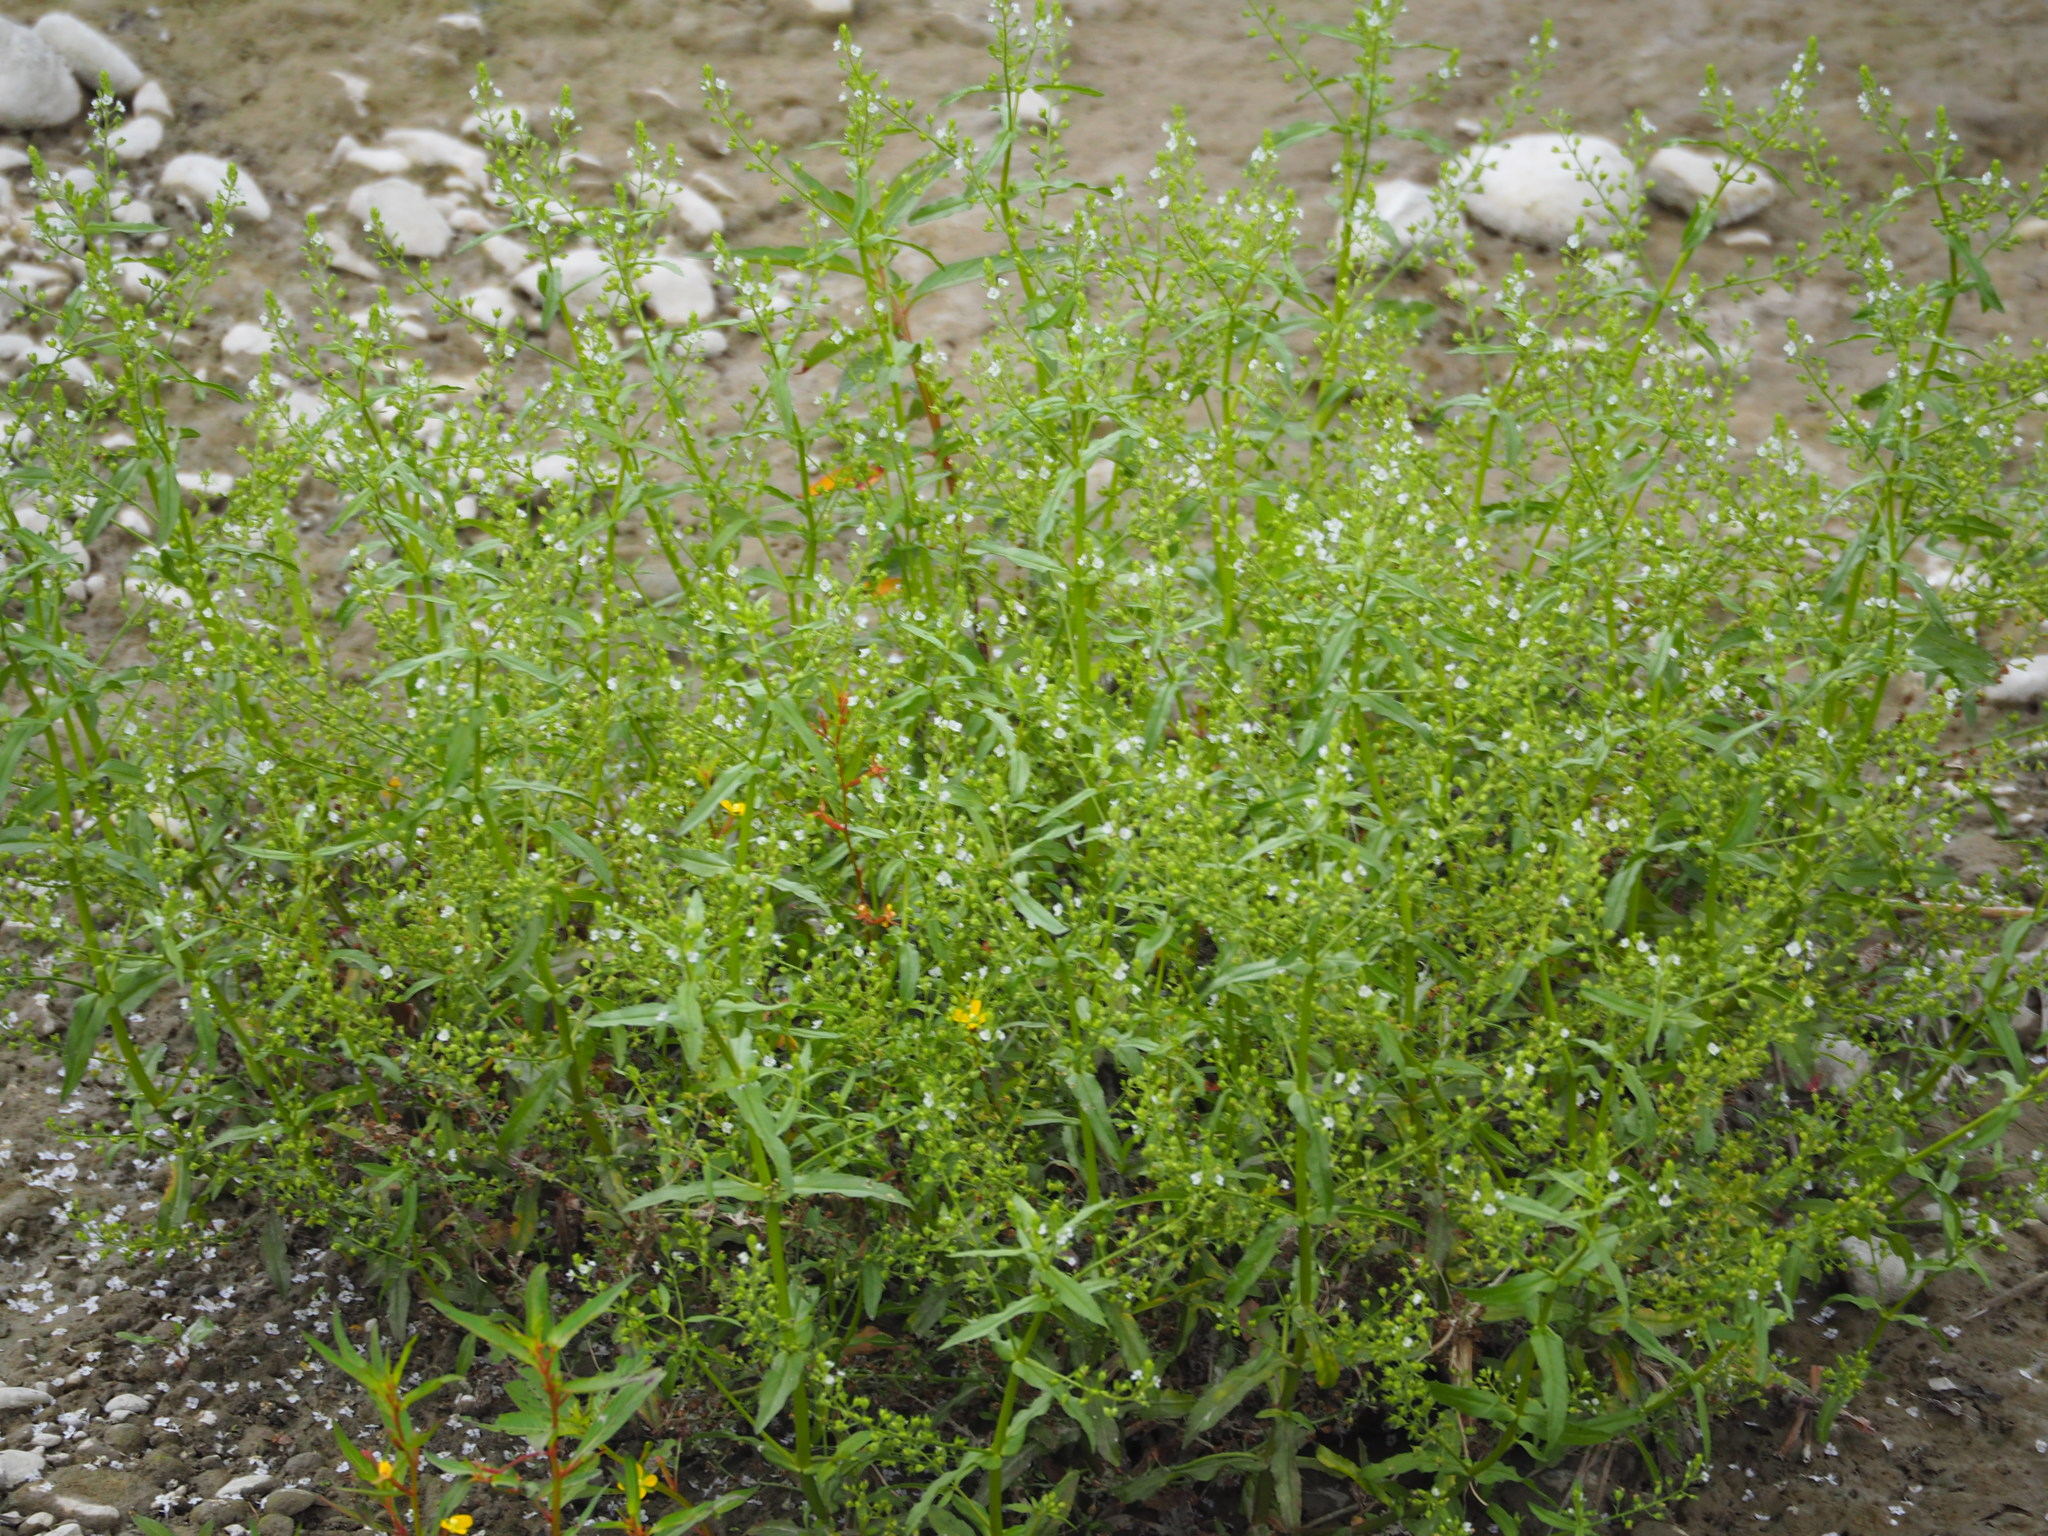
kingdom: Plantae
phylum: Tracheophyta
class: Magnoliopsida
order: Lamiales
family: Plantaginaceae
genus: Veronica
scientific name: Veronica undulata
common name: Undulate speedwell
